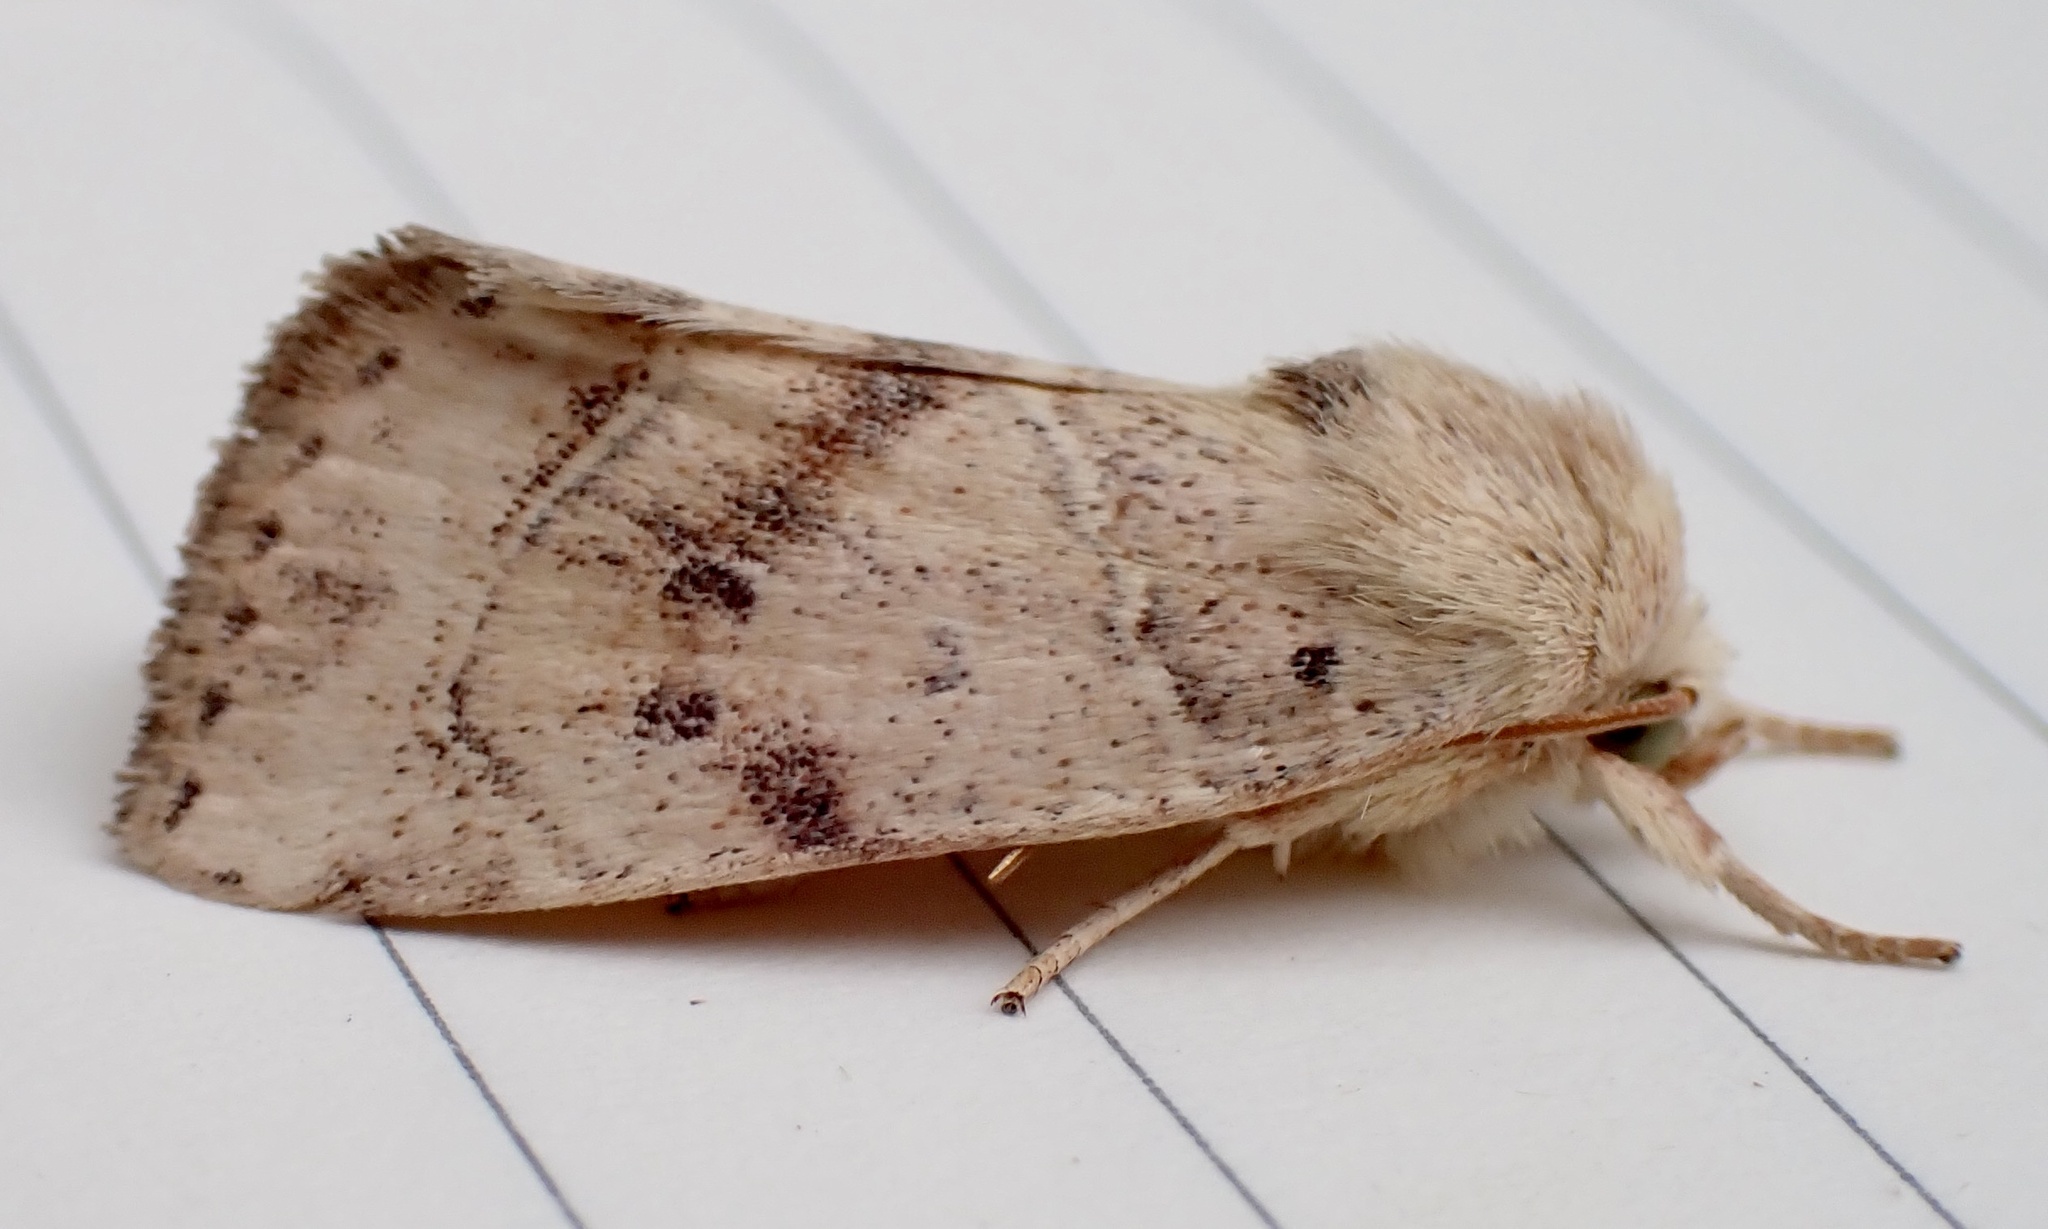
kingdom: Animalia
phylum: Arthropoda
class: Insecta
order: Lepidoptera
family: Noctuidae
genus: Cosmia
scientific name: Cosmia calami
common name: American dun-bar moth
